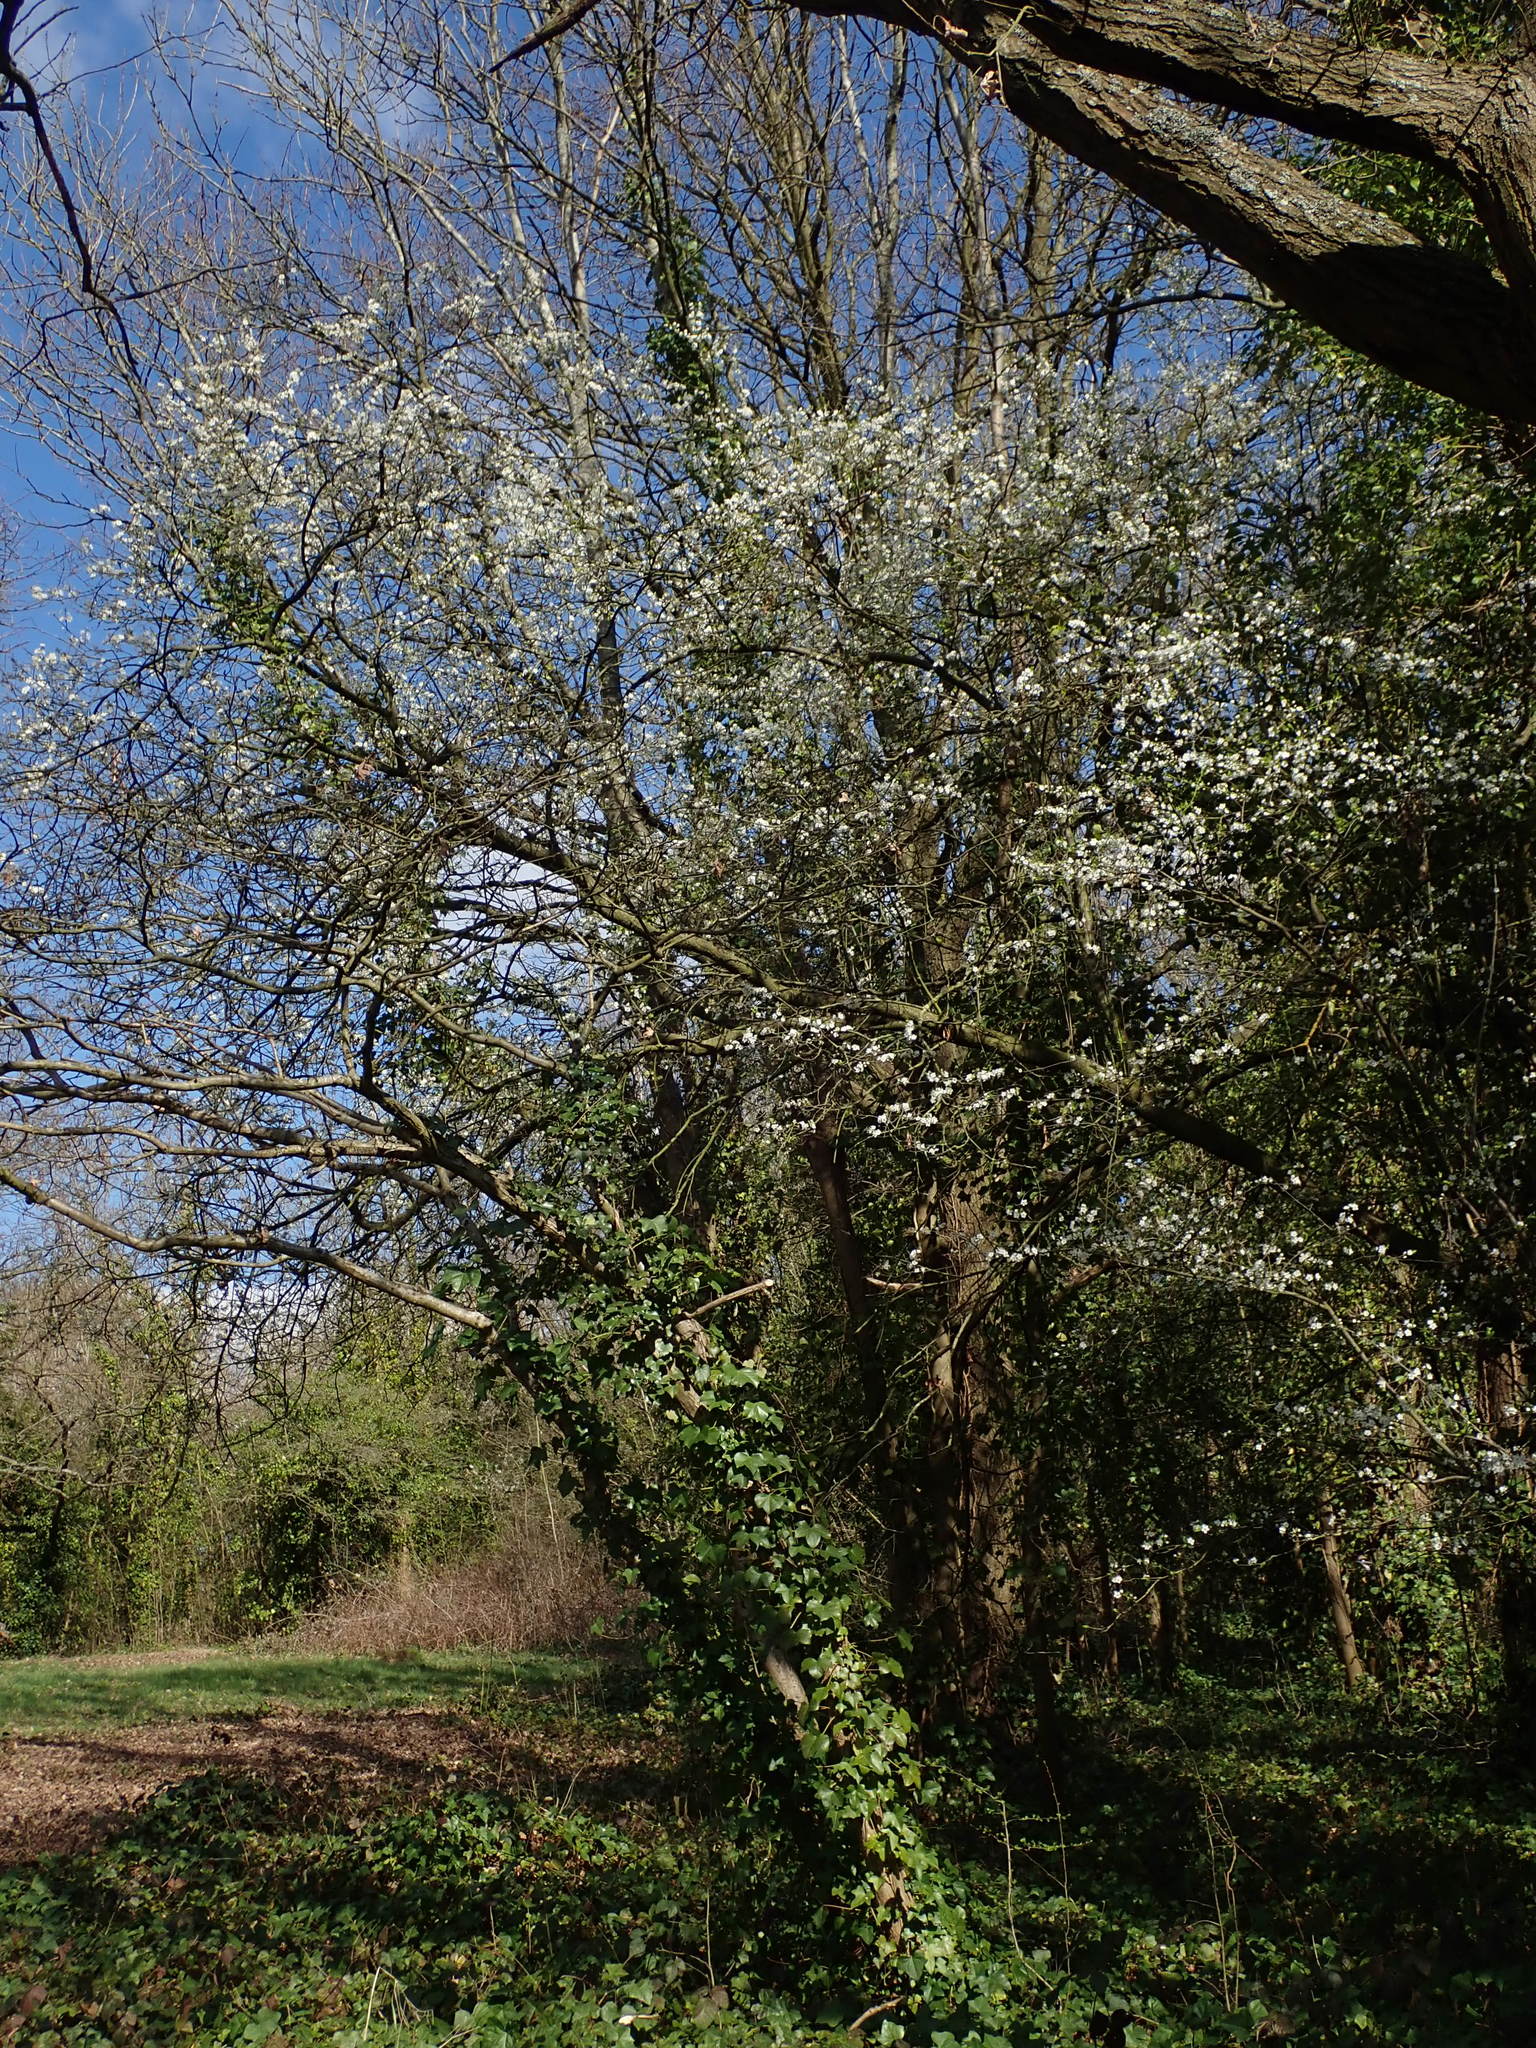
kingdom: Plantae
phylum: Tracheophyta
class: Magnoliopsida
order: Rosales
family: Rosaceae
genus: Prunus
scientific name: Prunus cerasifera
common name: Cherry plum
